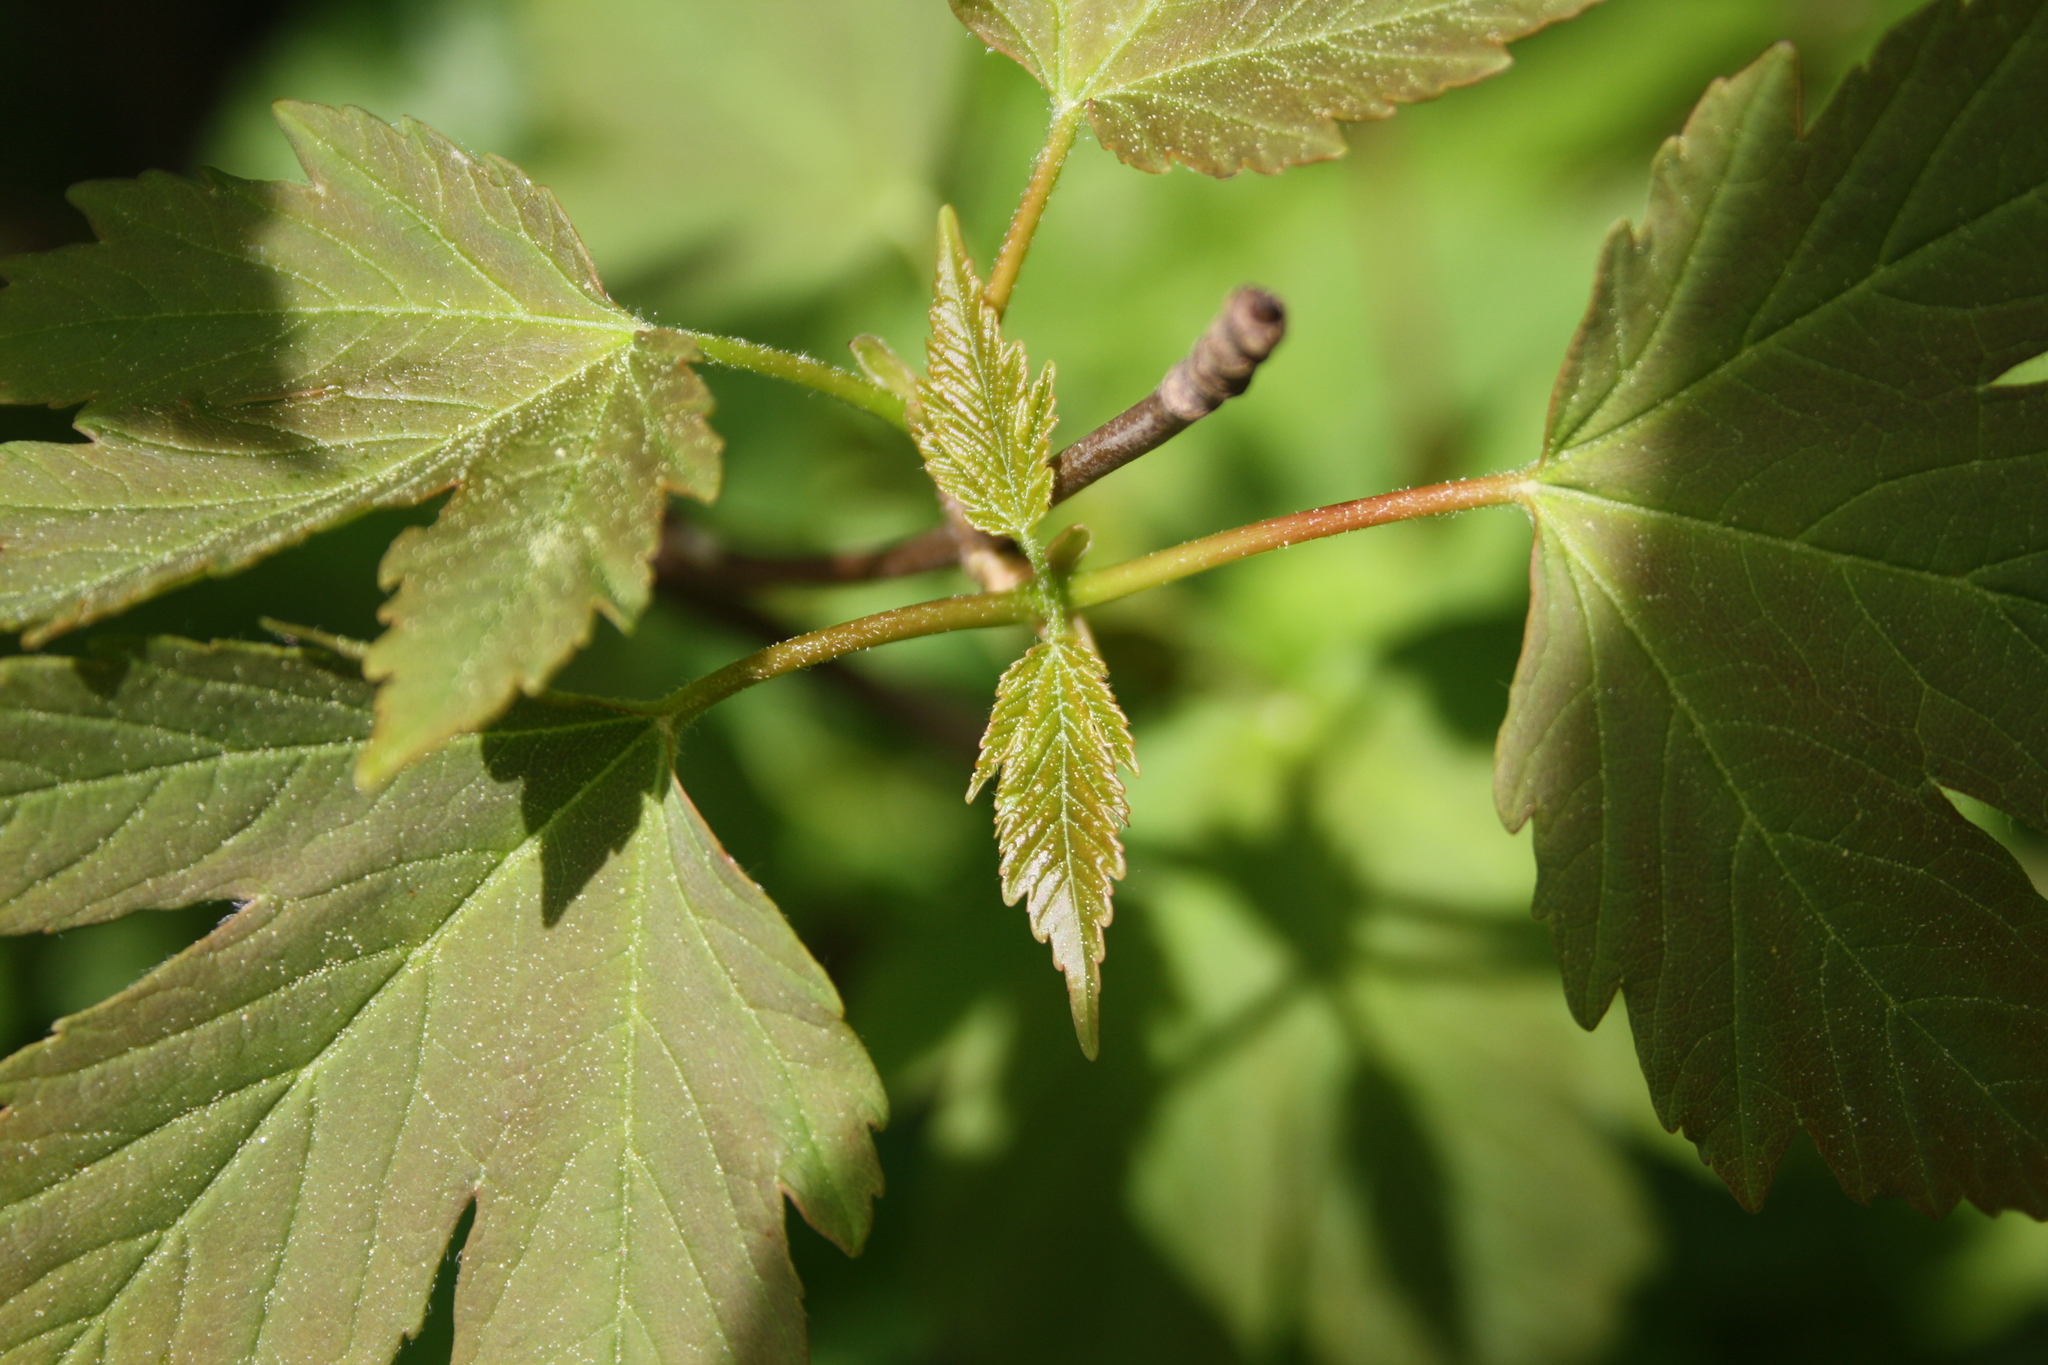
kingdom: Plantae
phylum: Tracheophyta
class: Magnoliopsida
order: Sapindales
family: Sapindaceae
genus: Acer
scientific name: Acer pseudoplatanus
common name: Sycamore
